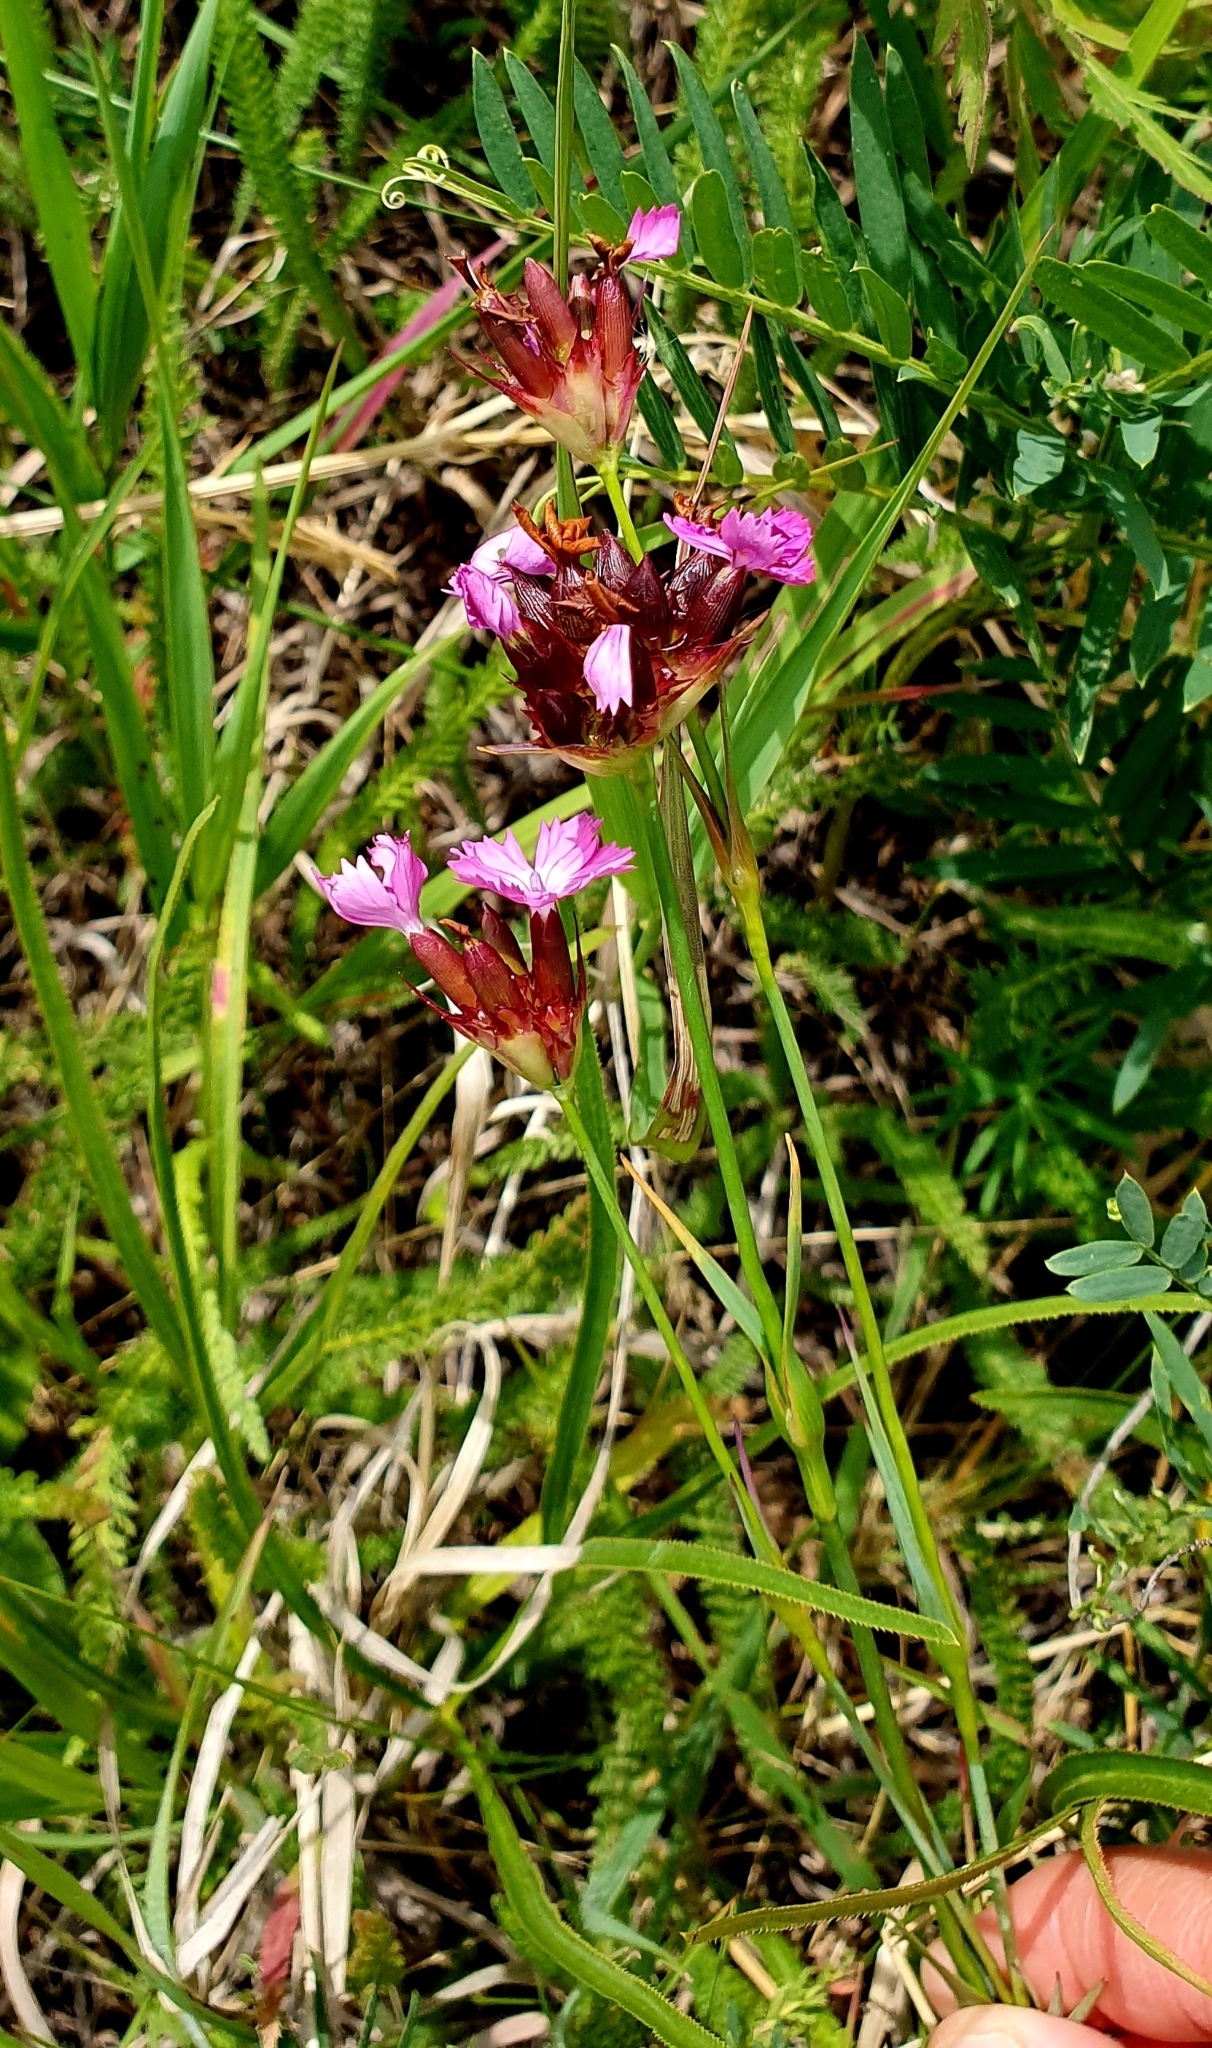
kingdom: Plantae
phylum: Tracheophyta
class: Magnoliopsida
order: Caryophyllales
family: Caryophyllaceae
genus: Dianthus
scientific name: Dianthus capitatus
